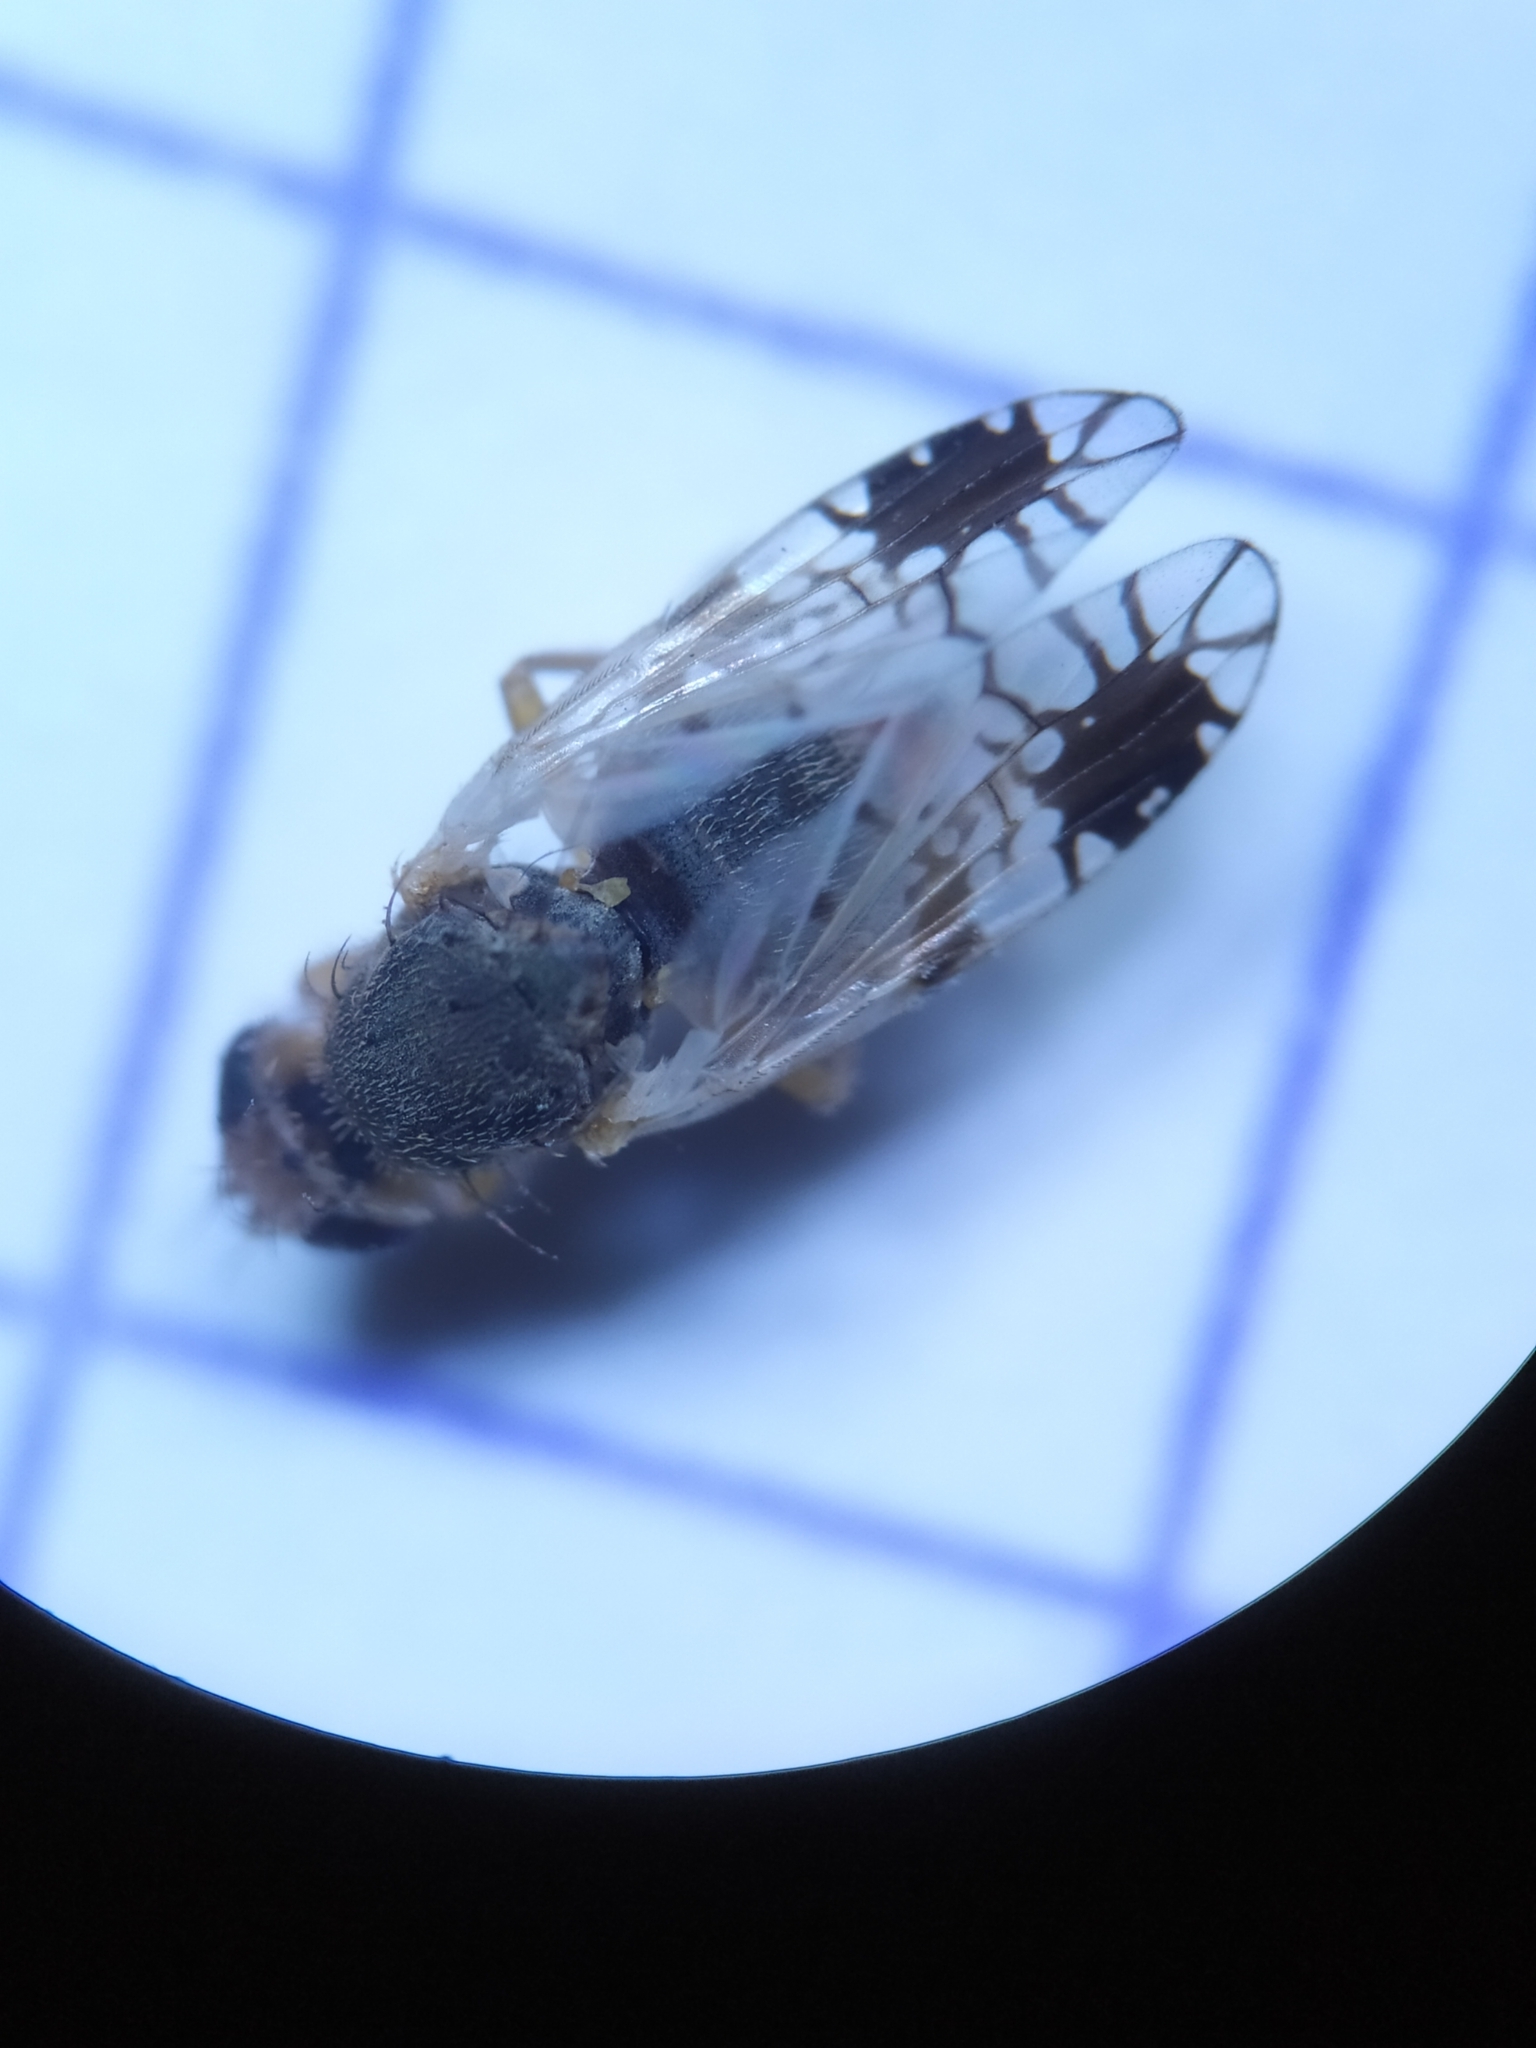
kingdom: Animalia
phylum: Arthropoda
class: Insecta
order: Diptera
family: Tephritidae
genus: Tephritis
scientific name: Tephritis cometa
